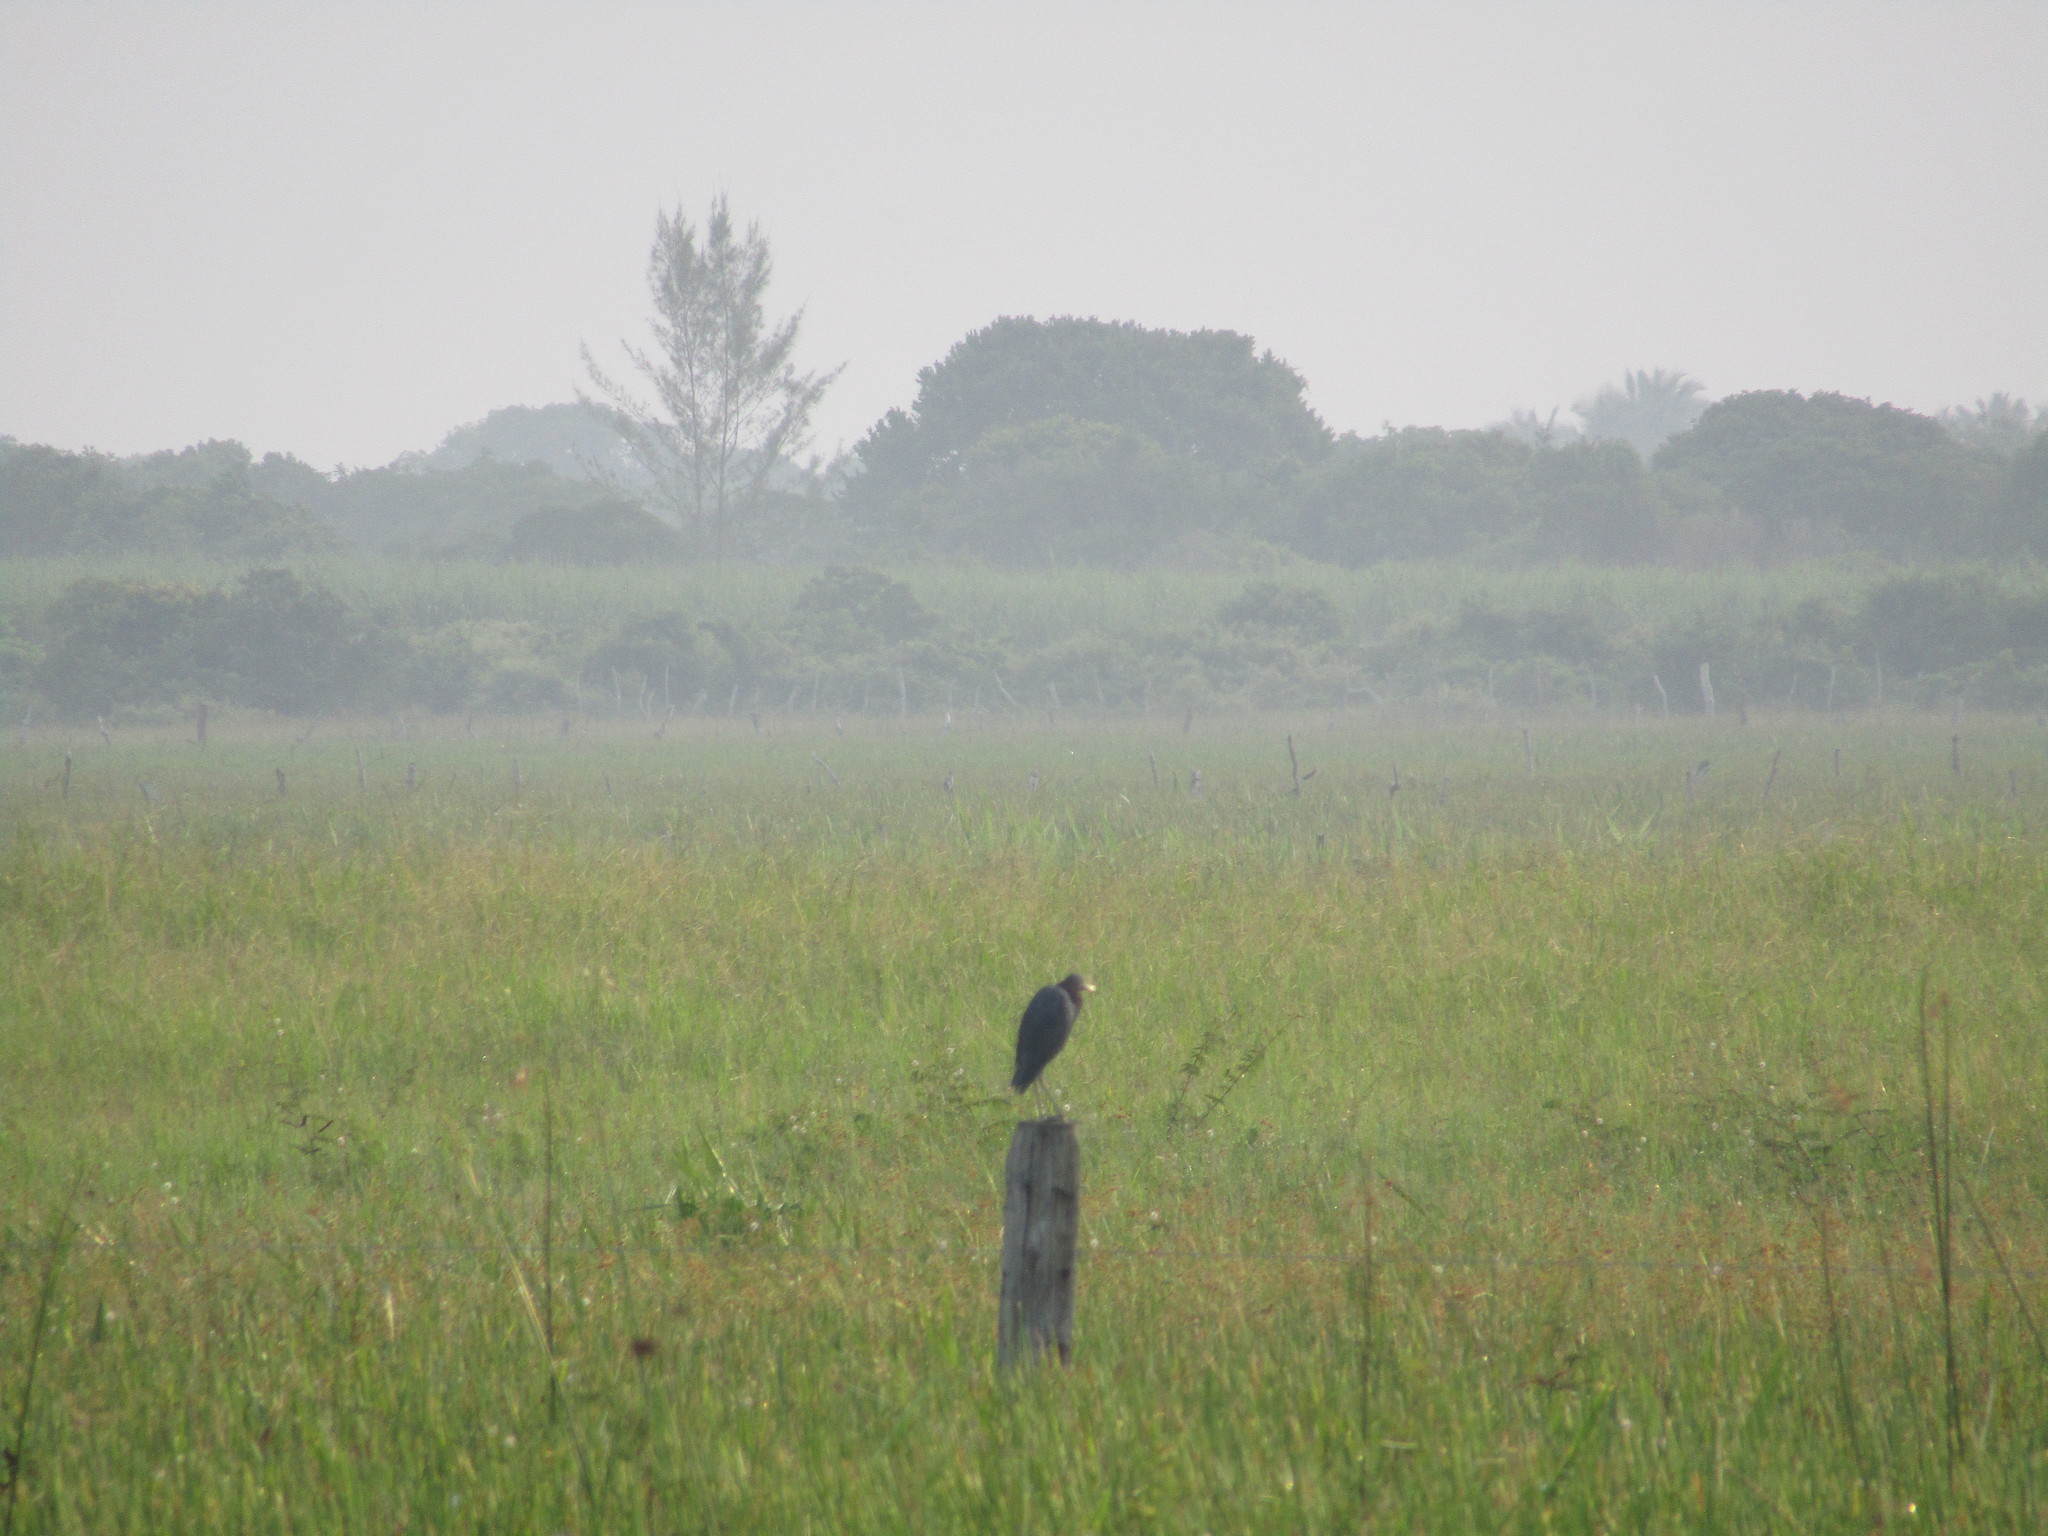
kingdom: Animalia
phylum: Chordata
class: Aves
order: Pelecaniformes
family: Ardeidae
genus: Egretta
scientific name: Egretta caerulea
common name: Little blue heron
